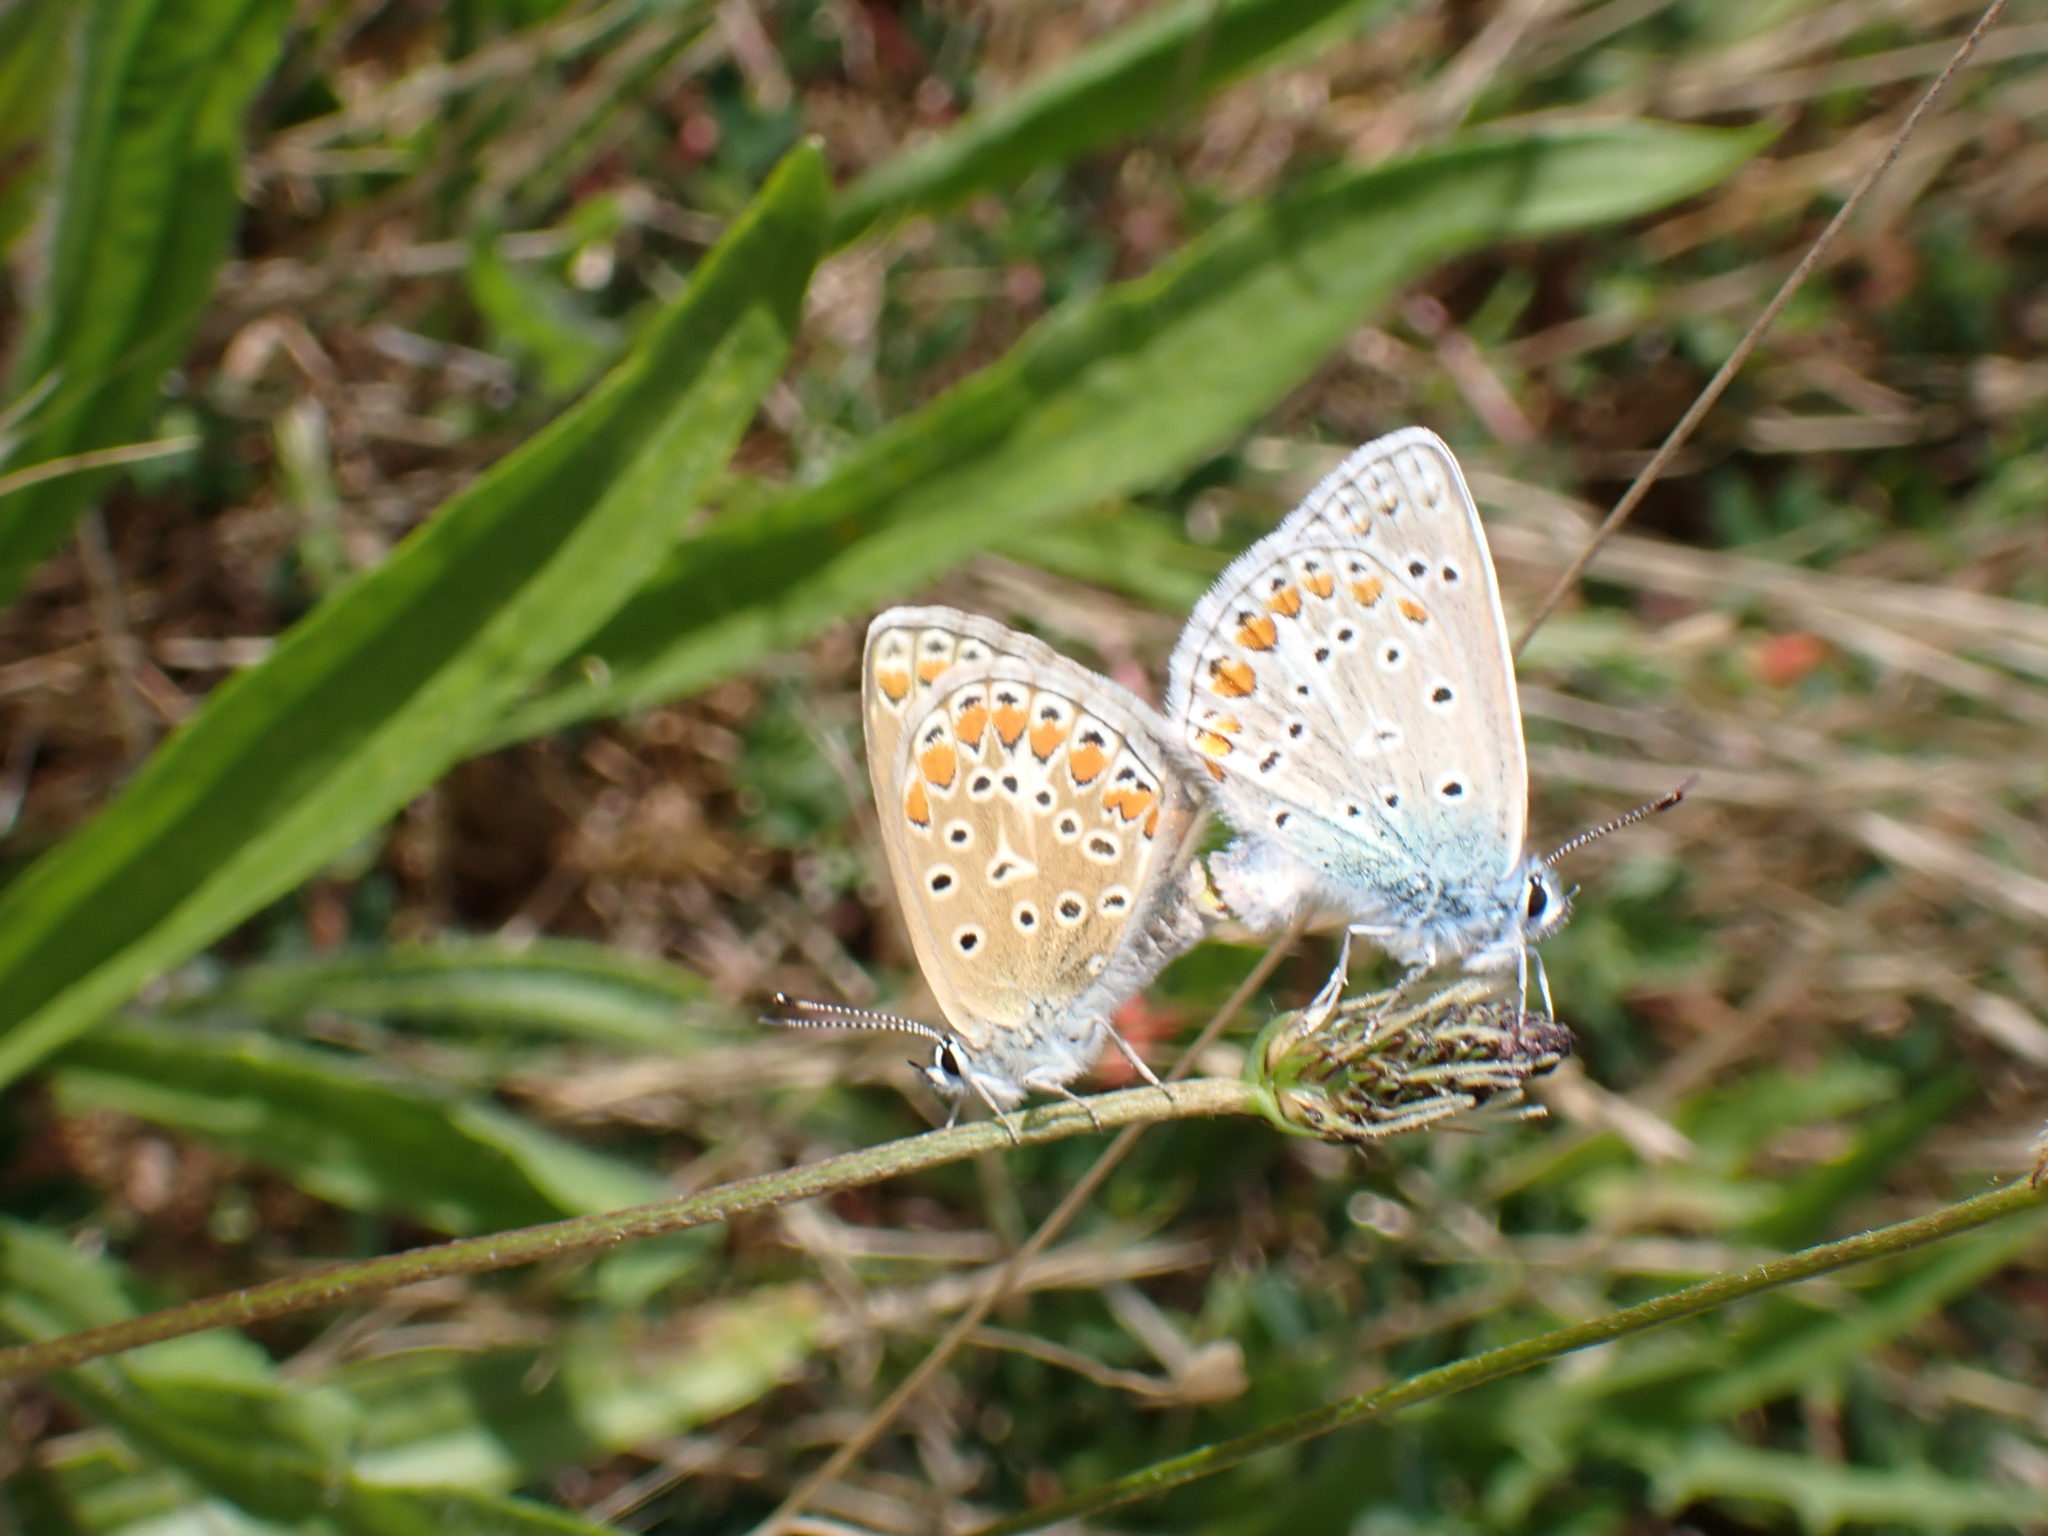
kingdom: Animalia
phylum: Arthropoda
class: Insecta
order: Lepidoptera
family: Lycaenidae
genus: Polyommatus
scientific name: Polyommatus icarus
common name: Common blue
